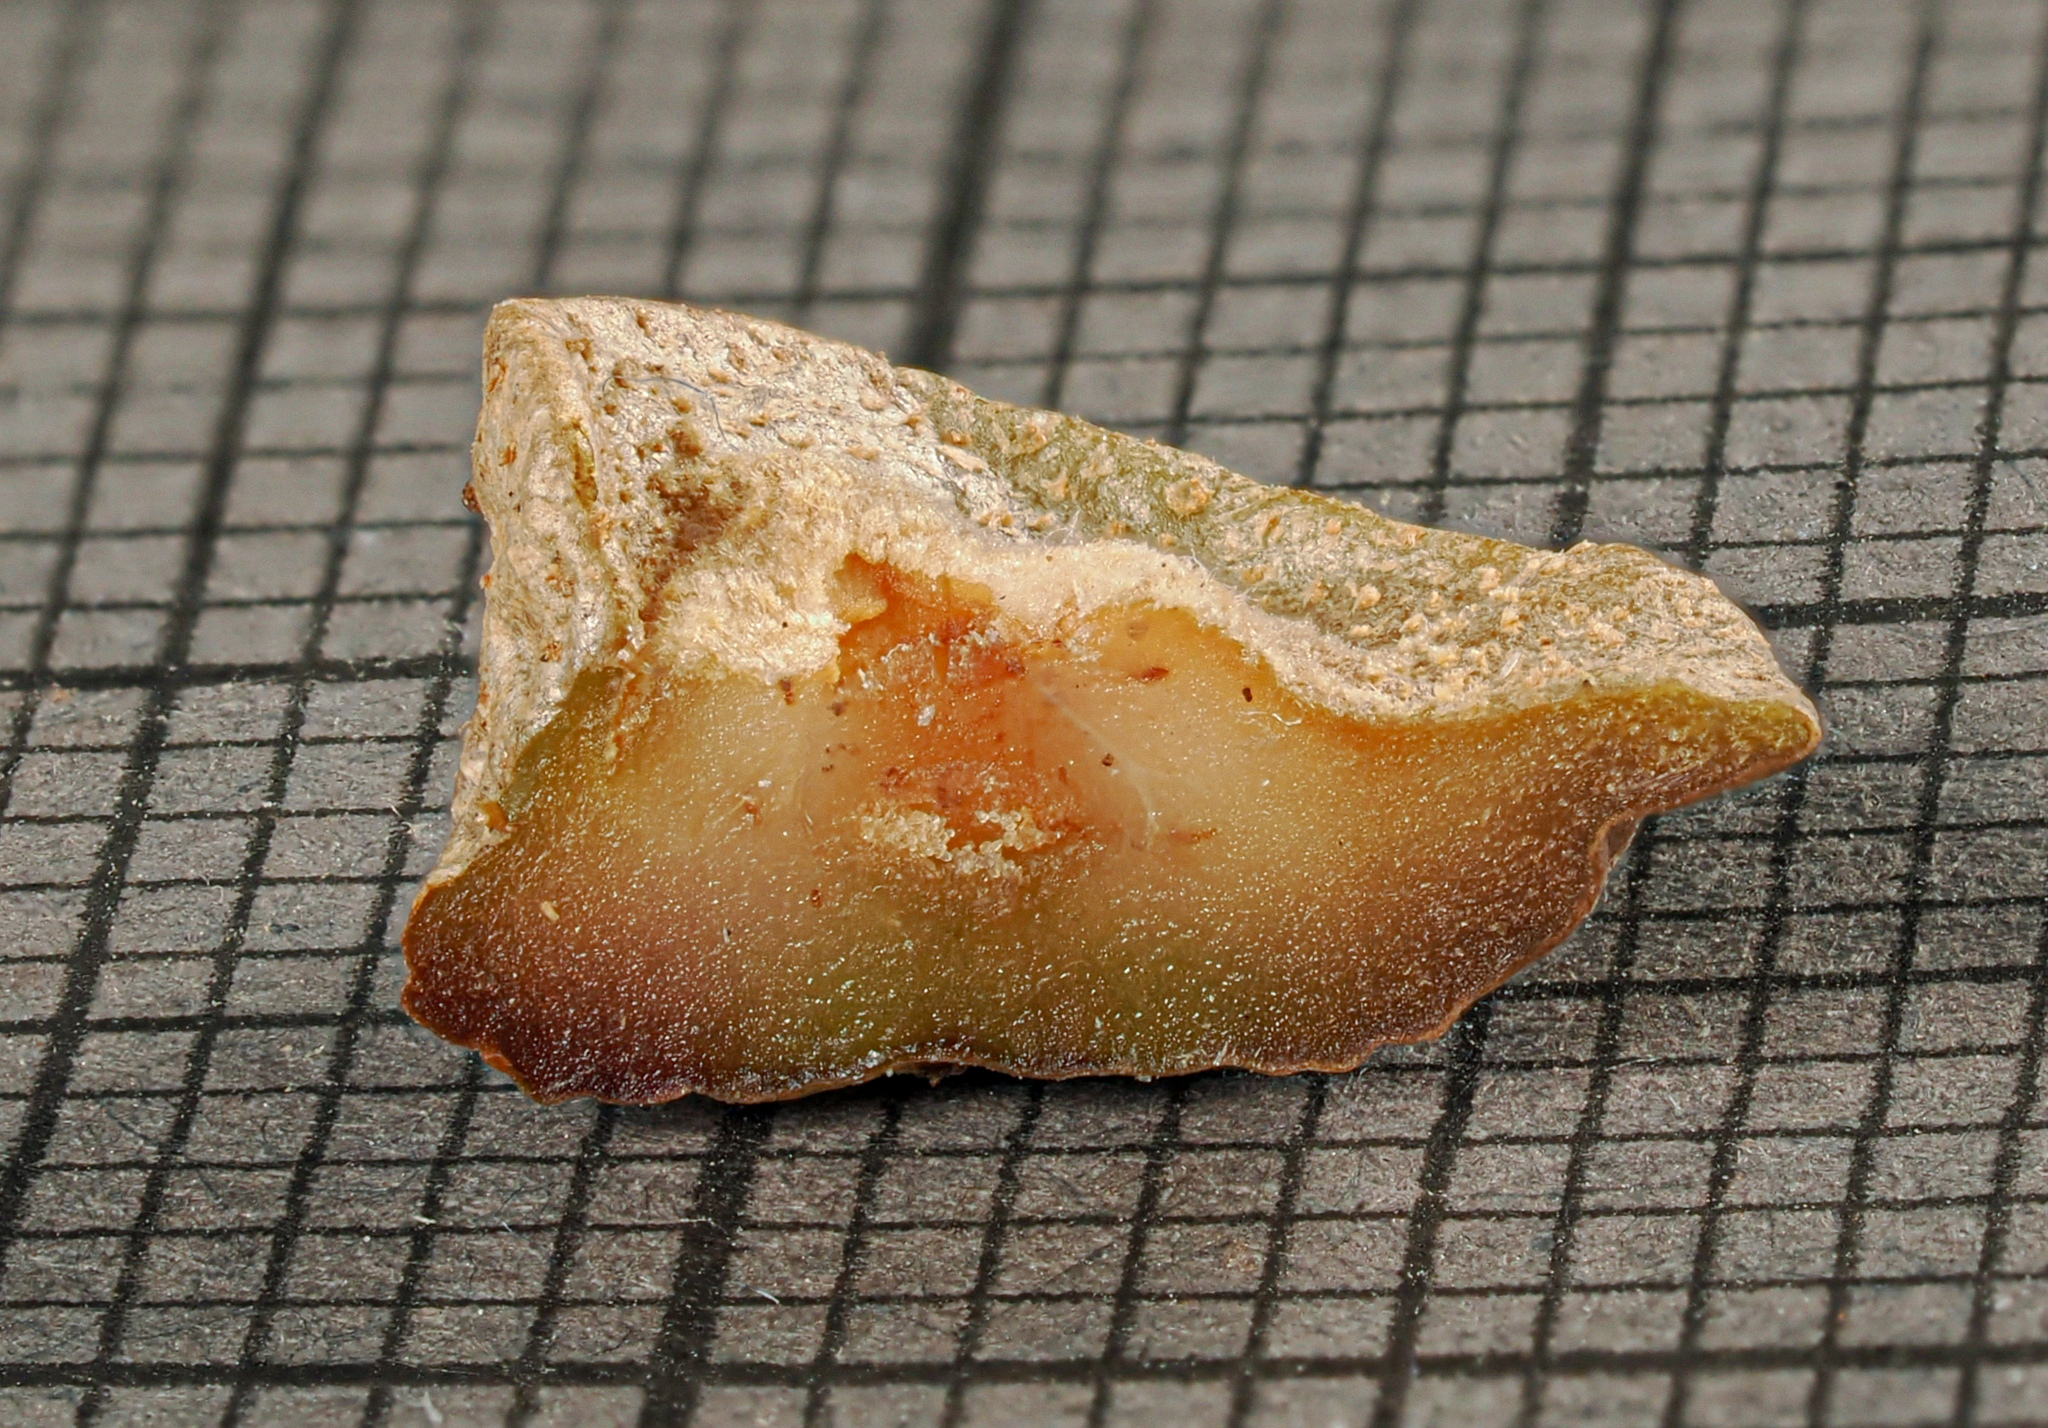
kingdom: Animalia
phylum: Arthropoda
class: Insecta
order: Hymenoptera
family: Cynipidae
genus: Andricus
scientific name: Andricus
